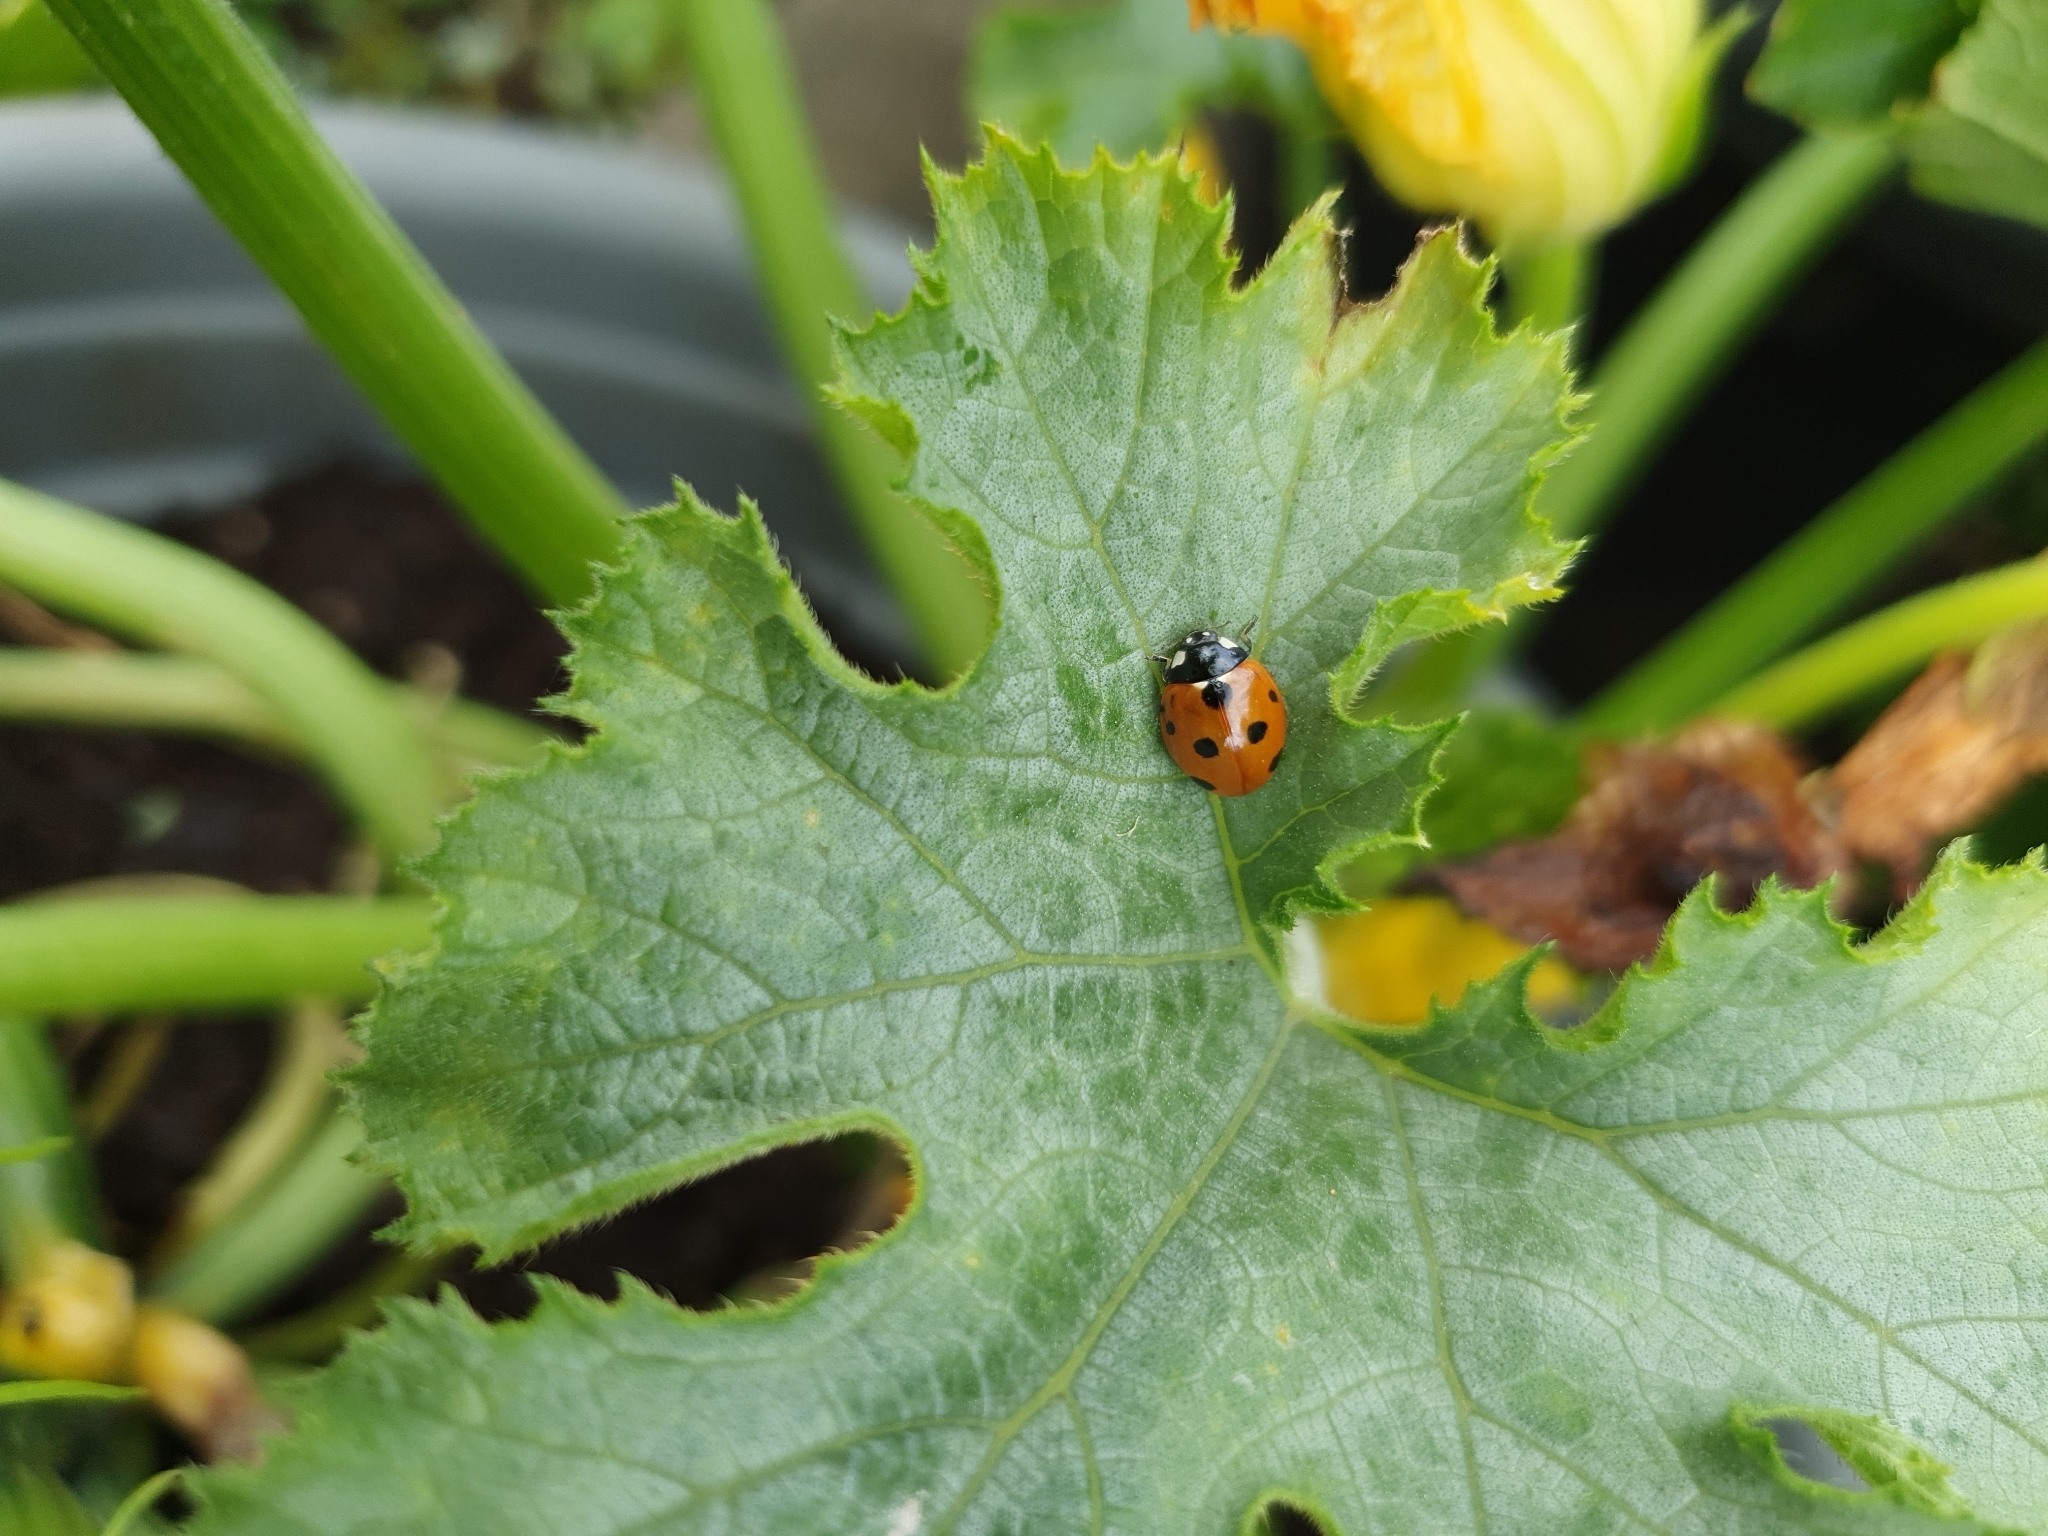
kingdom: Animalia
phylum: Arthropoda
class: Insecta
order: Coleoptera
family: Coccinellidae
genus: Coccinella
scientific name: Coccinella septempunctata
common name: Sevenspotted lady beetle
